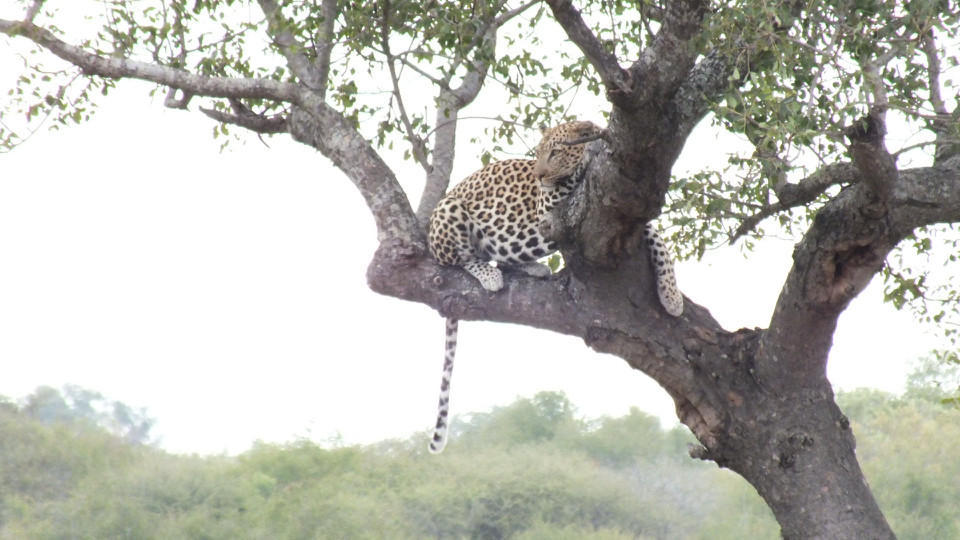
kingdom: Animalia
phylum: Chordata
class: Mammalia
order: Carnivora
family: Felidae
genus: Panthera
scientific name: Panthera pardus
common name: Leopard
